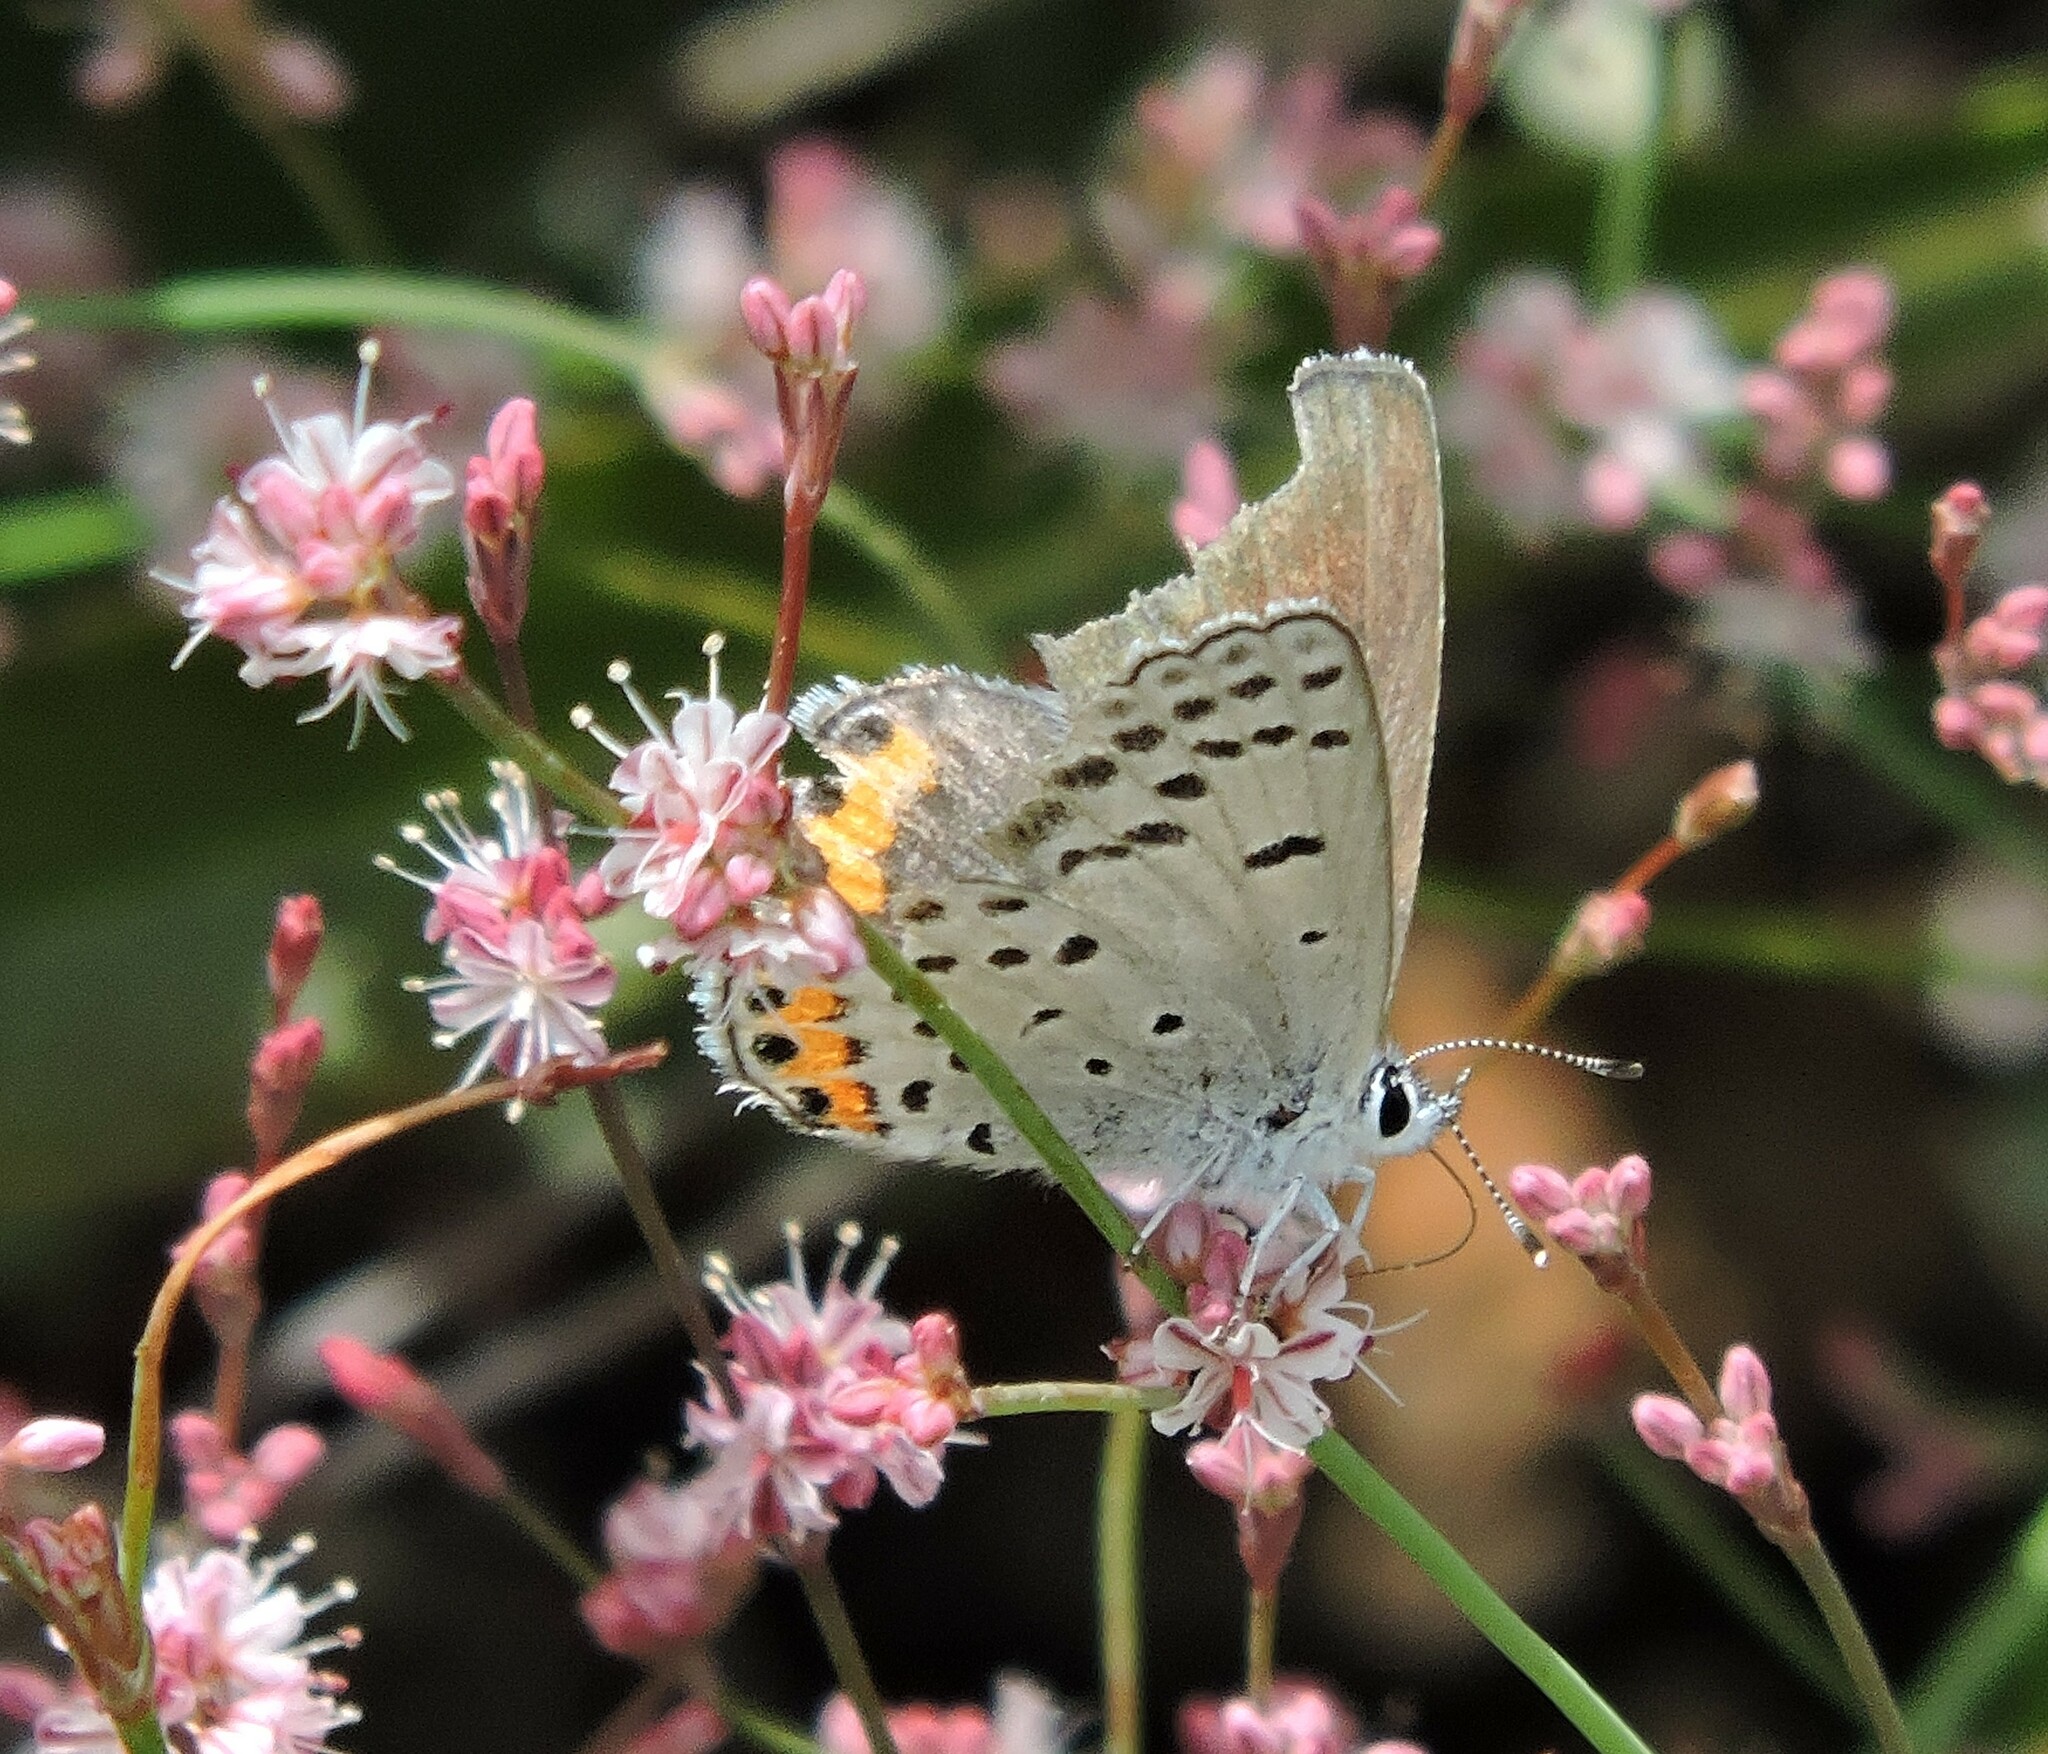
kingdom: Animalia
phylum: Arthropoda
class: Insecta
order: Lepidoptera
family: Lycaenidae
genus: Icaricia
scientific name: Icaricia acmon
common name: Acmon blue
